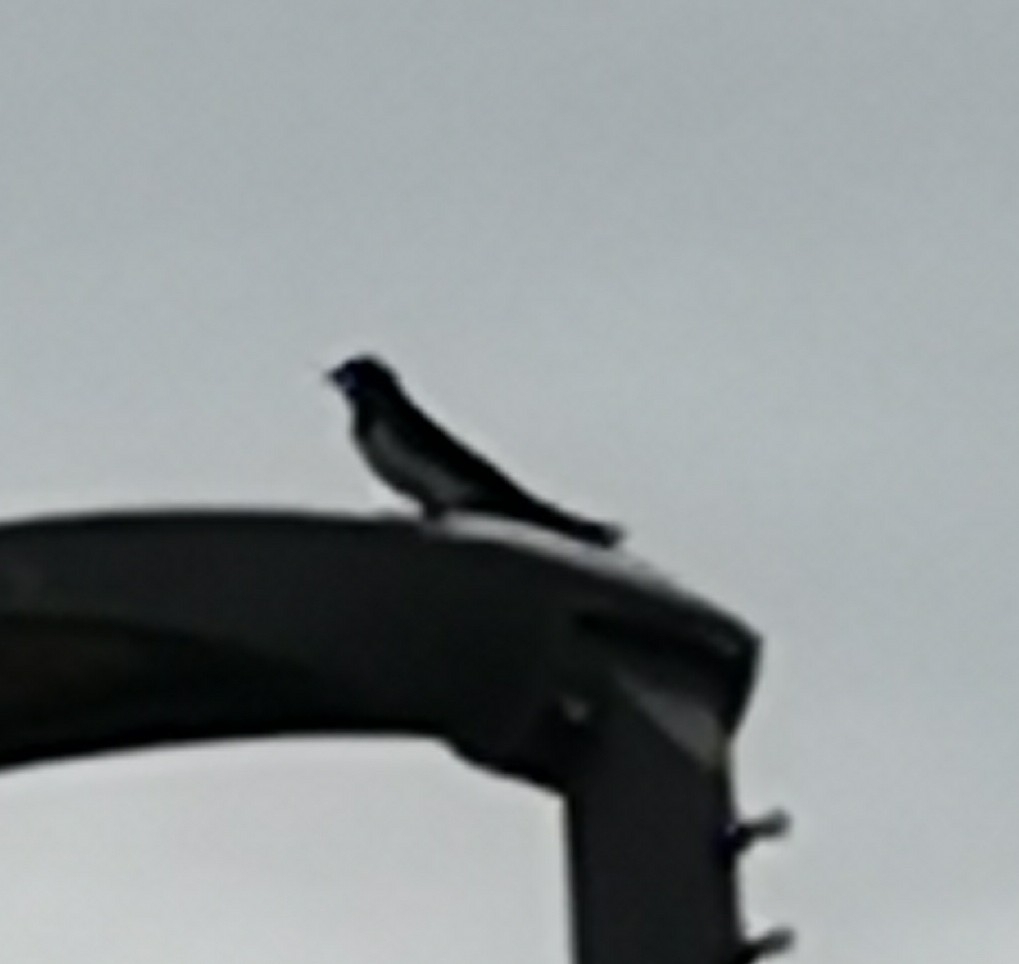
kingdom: Animalia
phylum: Chordata
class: Aves
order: Passeriformes
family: Hirundinidae
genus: Hirundo
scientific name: Hirundo rustica
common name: Barn swallow
